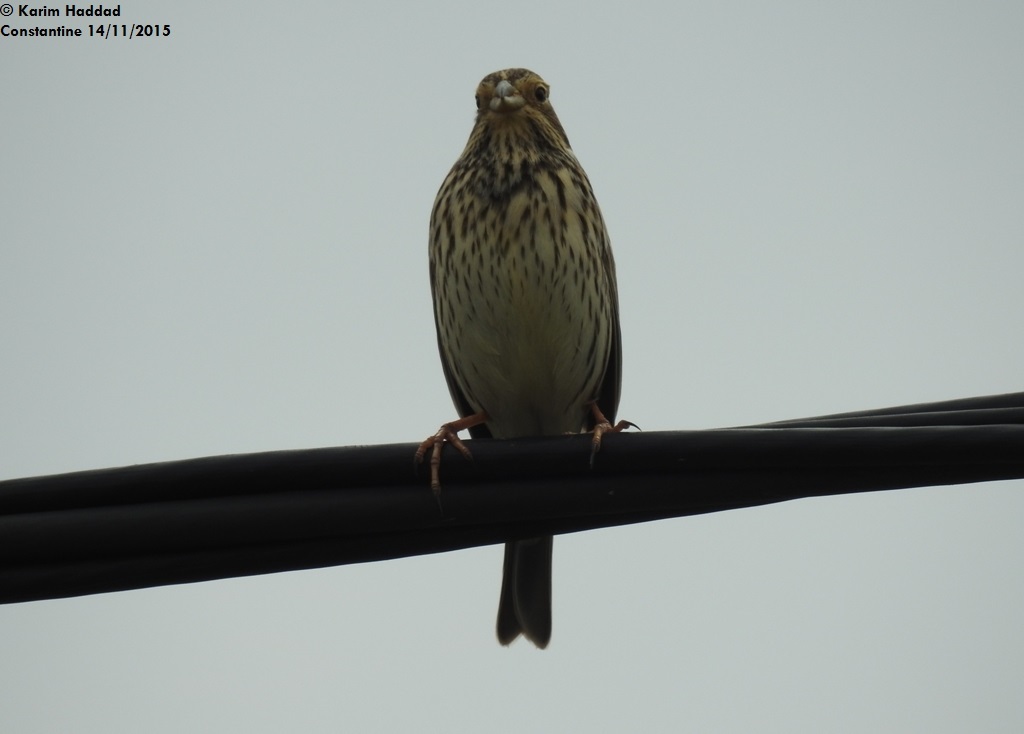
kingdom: Animalia
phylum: Chordata
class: Aves
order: Passeriformes
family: Emberizidae
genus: Emberiza
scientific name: Emberiza calandra
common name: Corn bunting
